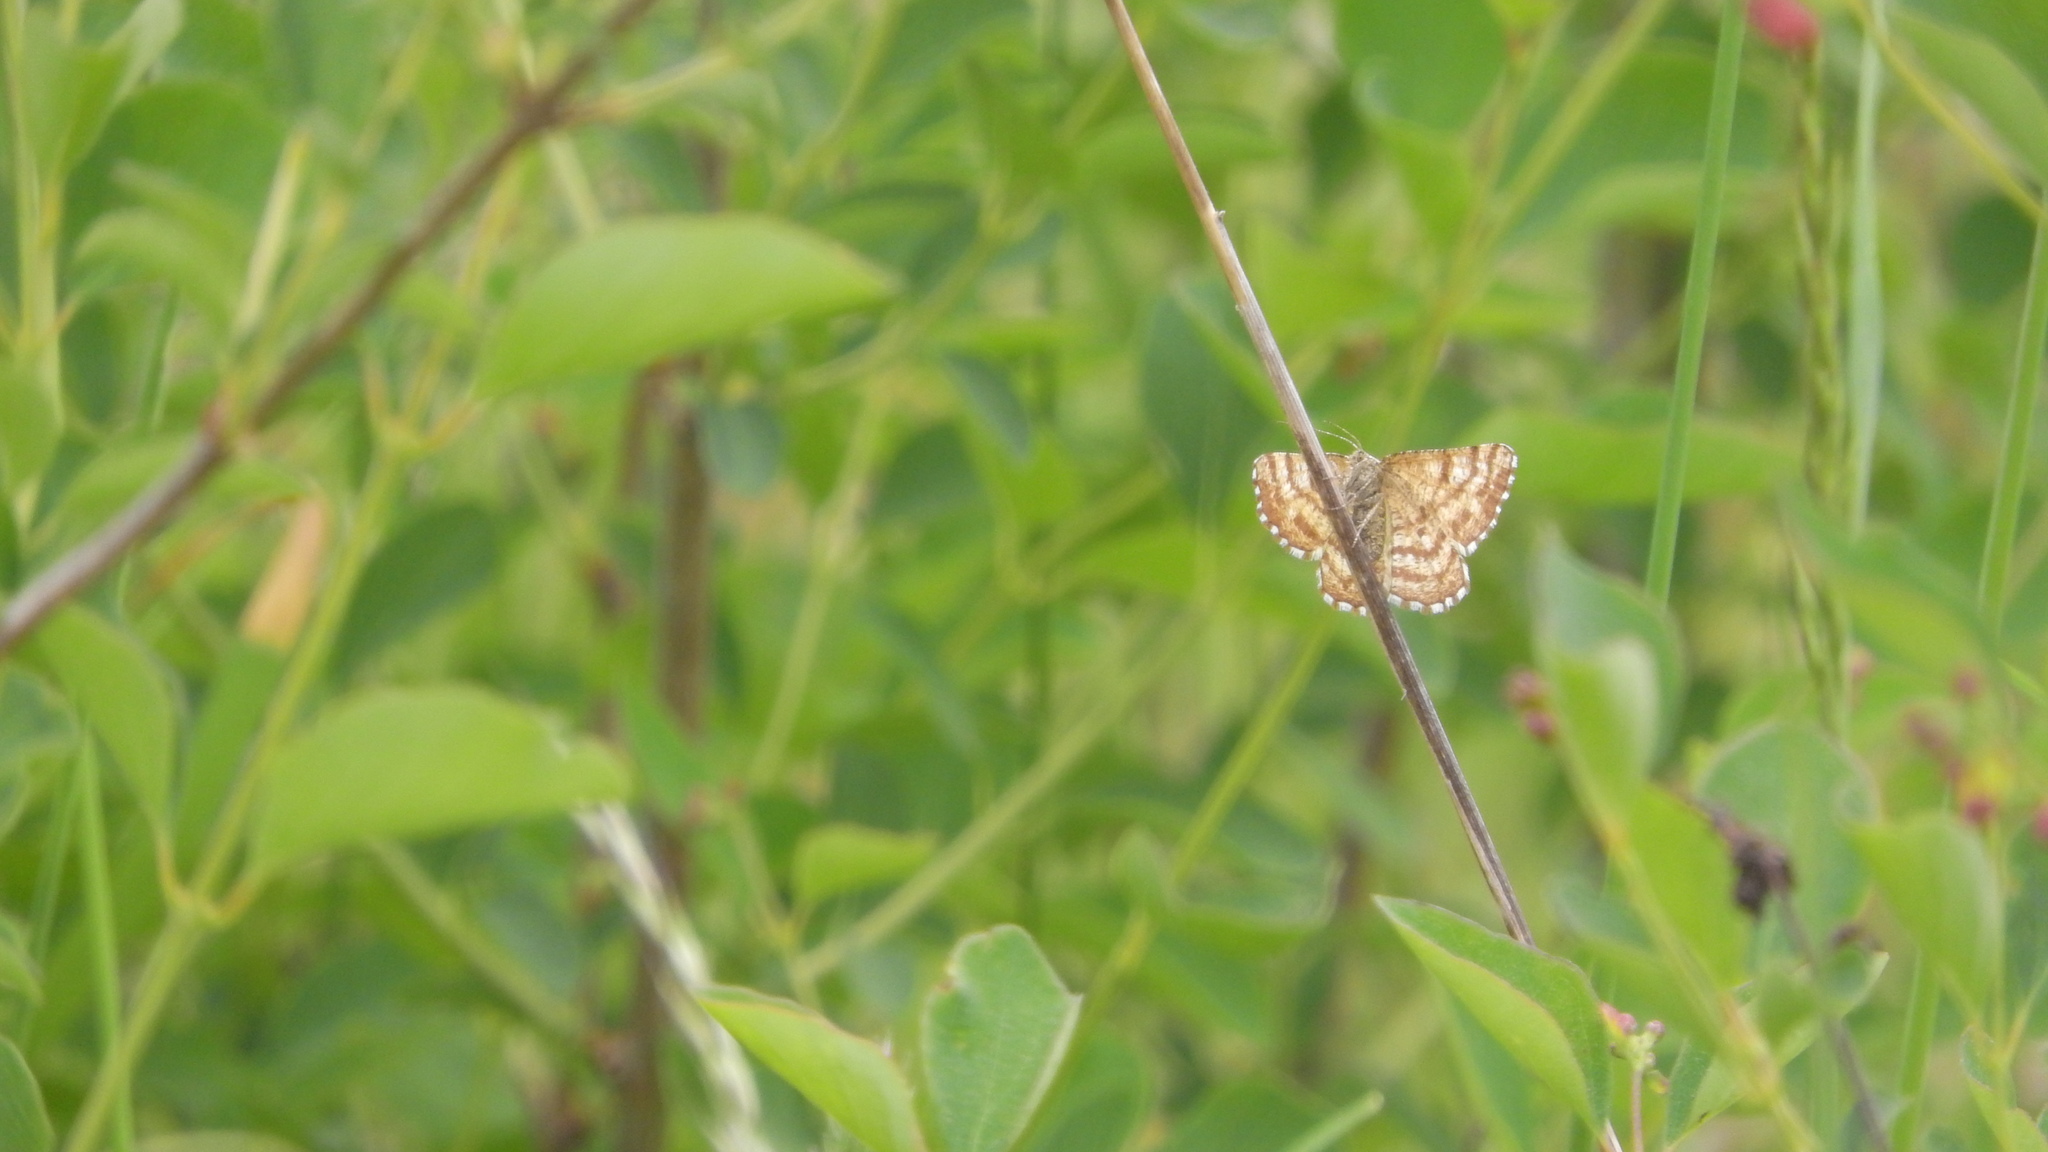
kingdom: Animalia
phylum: Arthropoda
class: Insecta
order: Lepidoptera
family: Geometridae
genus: Ematurga
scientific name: Ematurga atomaria
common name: Common heath
